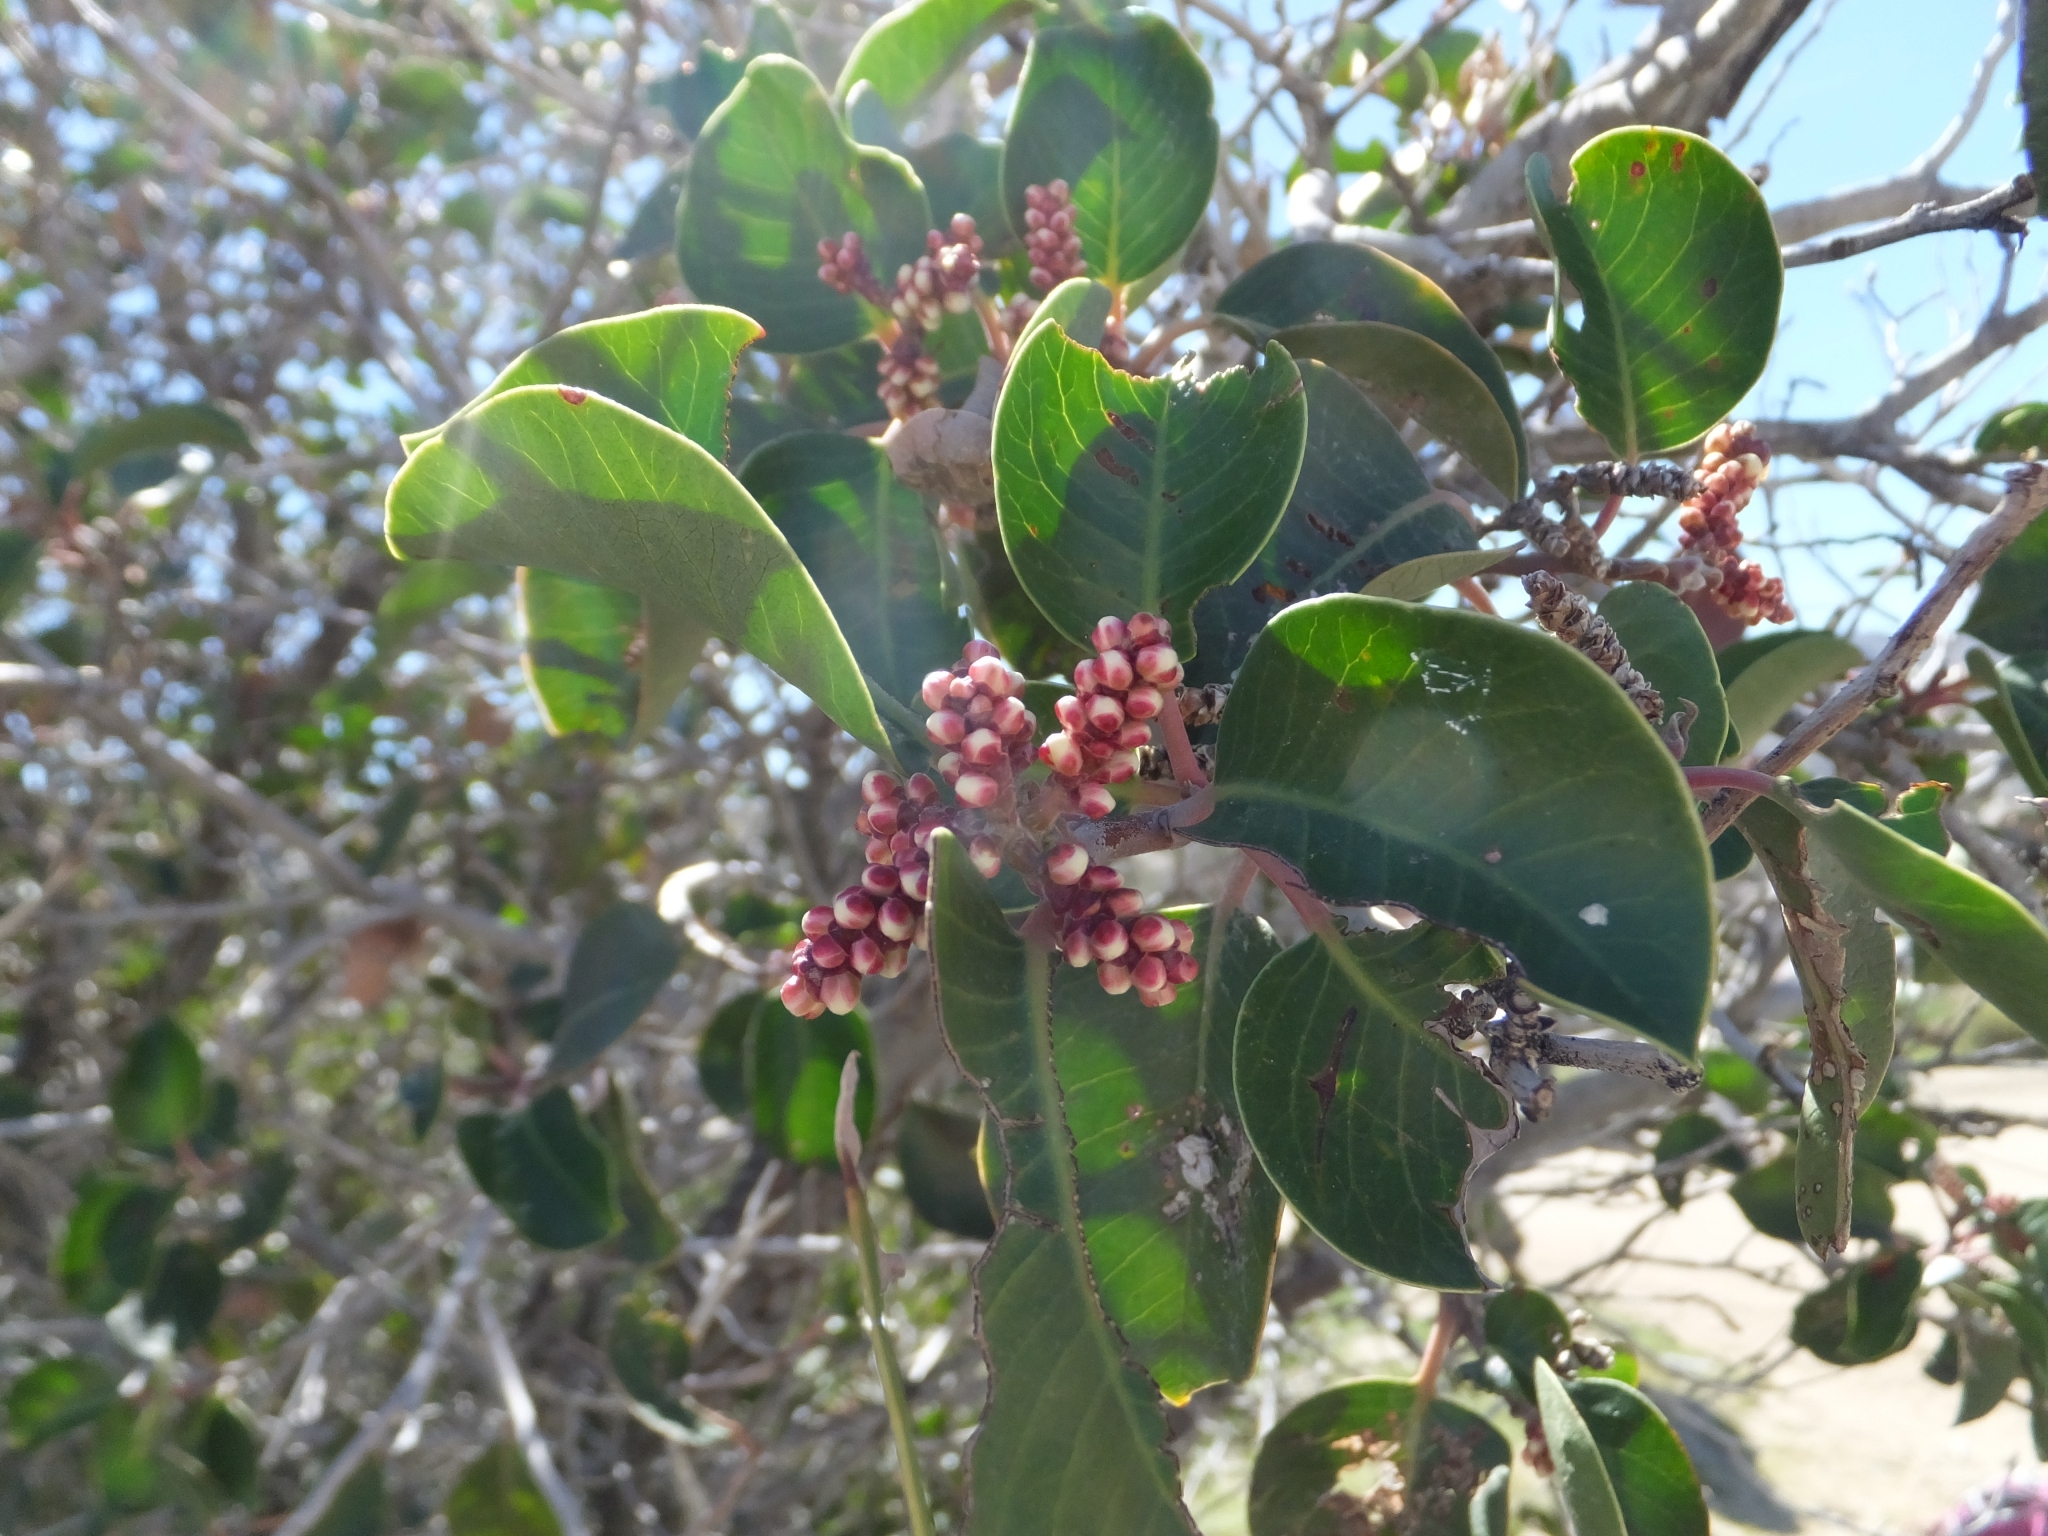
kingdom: Plantae
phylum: Tracheophyta
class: Magnoliopsida
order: Sapindales
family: Anacardiaceae
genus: Rhus
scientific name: Rhus ovata
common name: Sugar sumac
